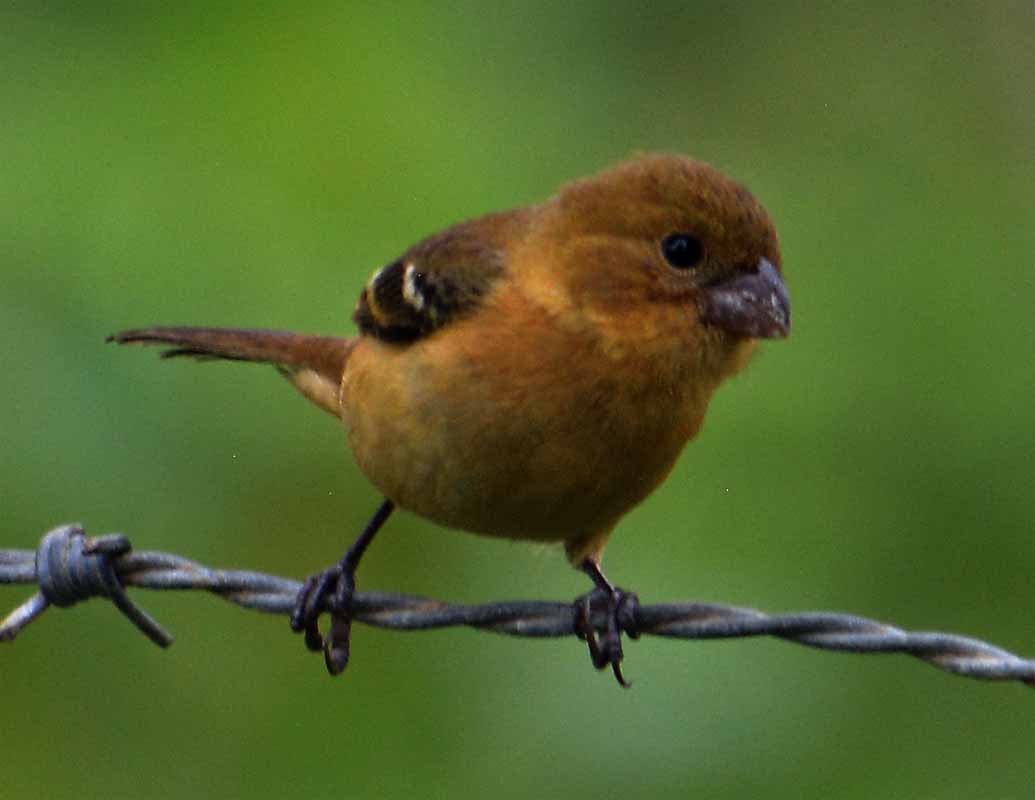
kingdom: Animalia
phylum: Chordata
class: Aves
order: Passeriformes
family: Thraupidae
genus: Sporophila
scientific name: Sporophila morelleti
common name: Morelet's seedeater
